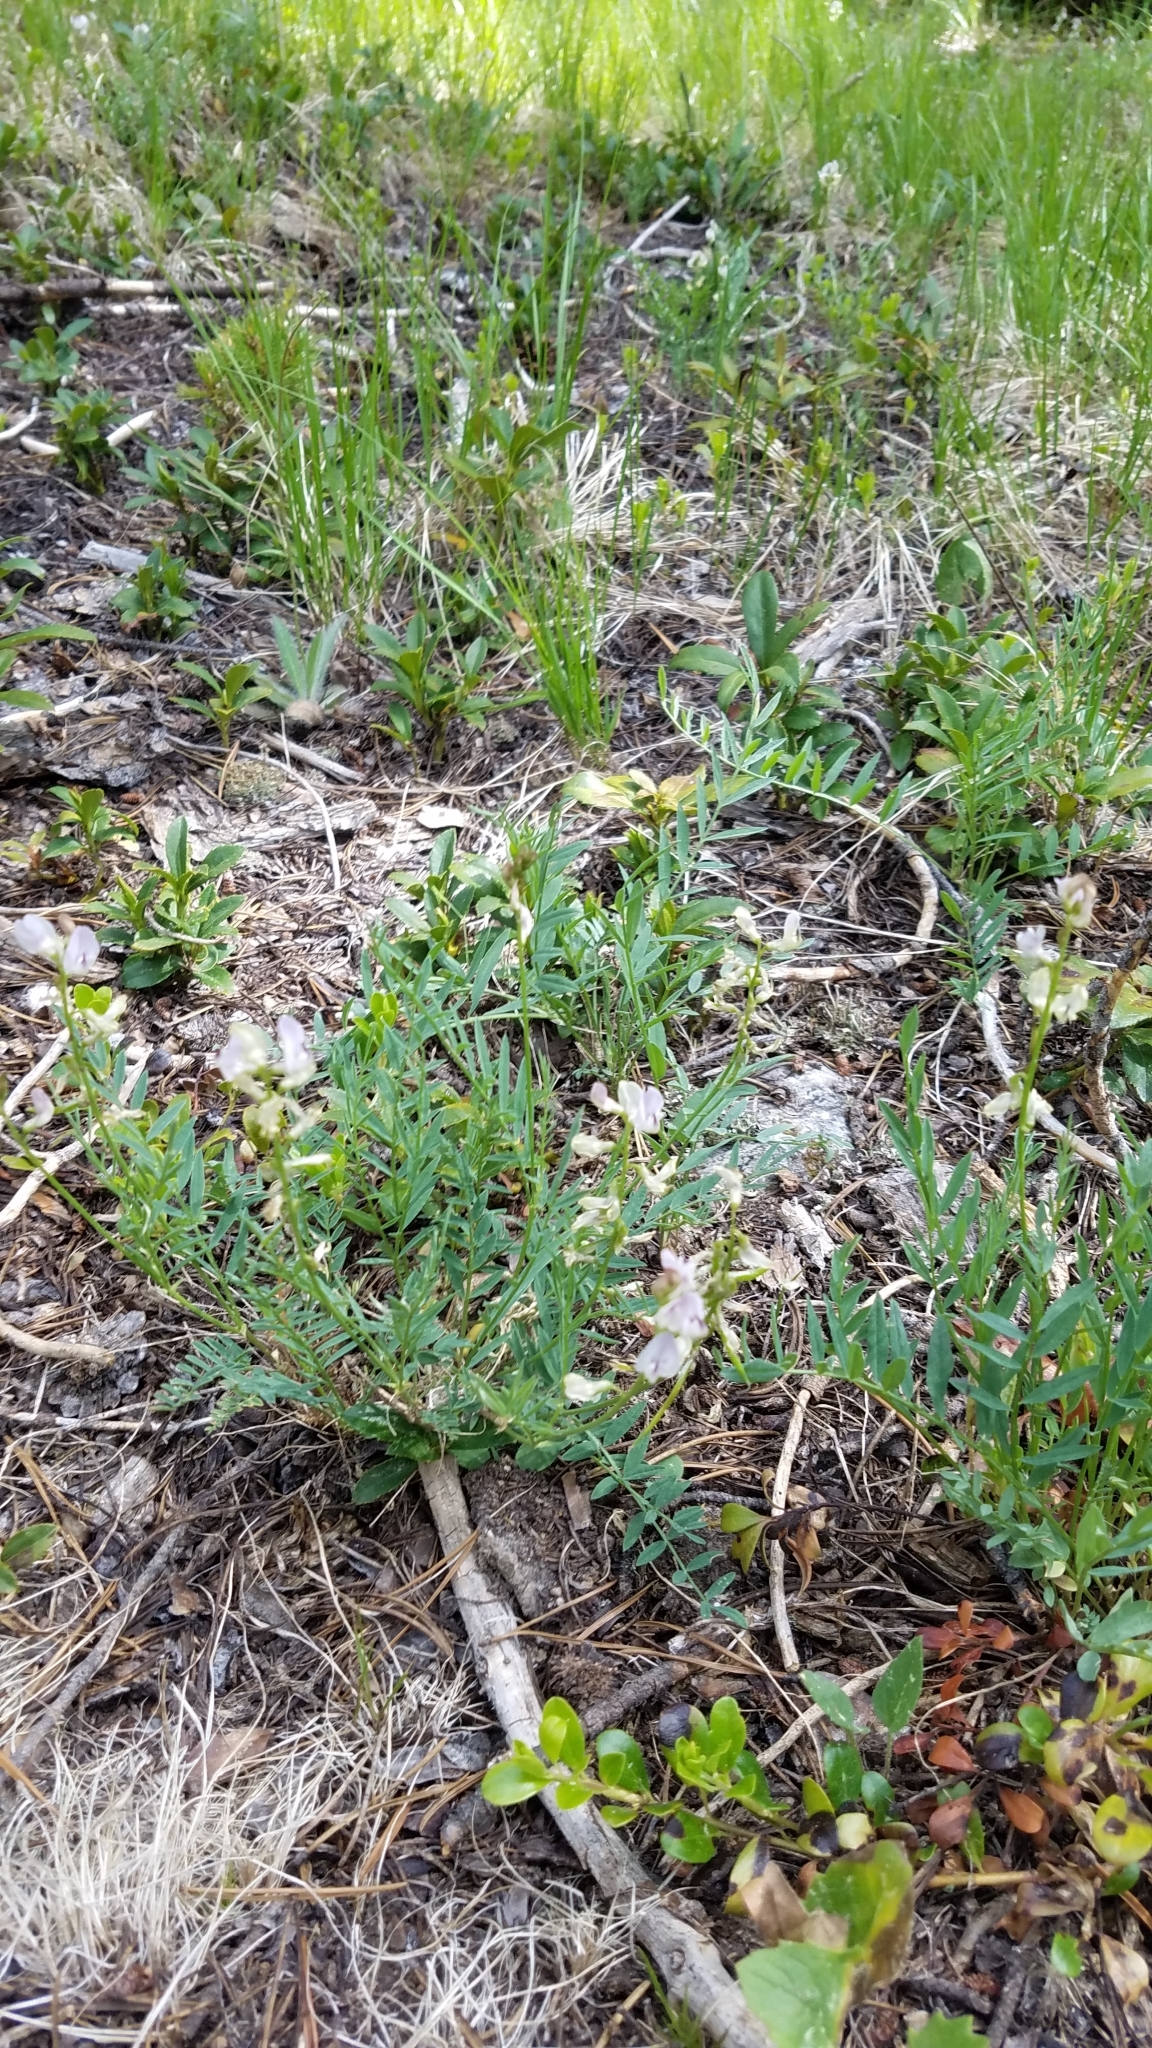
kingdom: Plantae
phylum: Tracheophyta
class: Magnoliopsida
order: Fabales
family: Fabaceae
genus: Astragalus
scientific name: Astragalus miser
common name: Timber milkvetch
